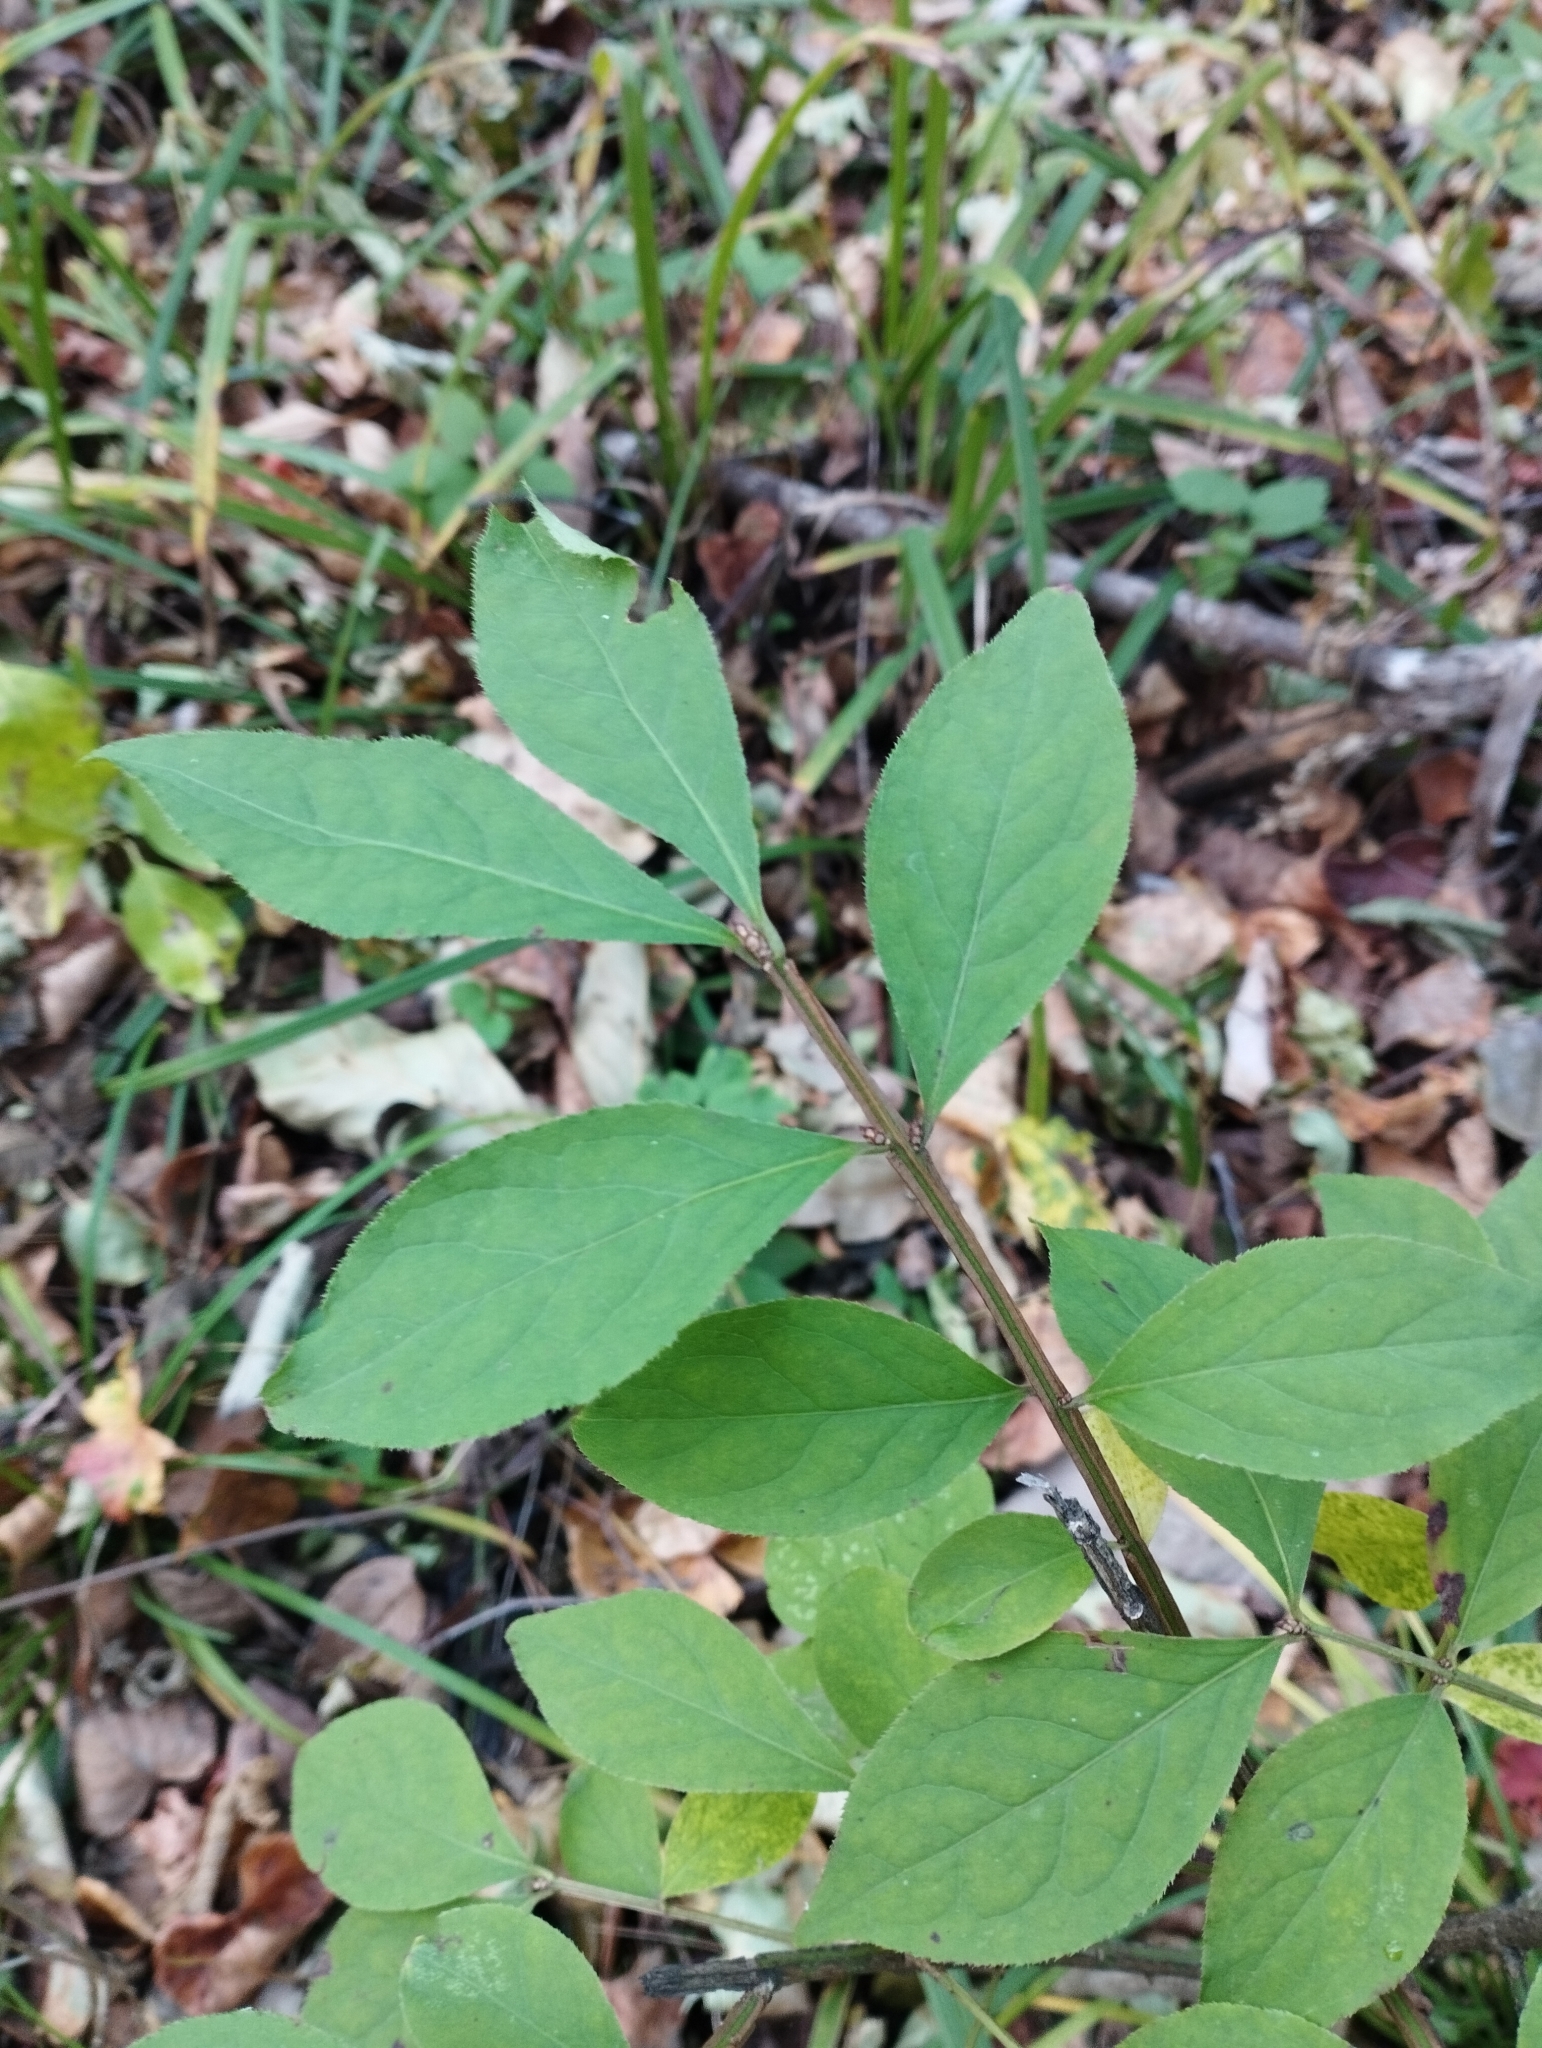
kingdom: Plantae
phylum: Tracheophyta
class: Magnoliopsida
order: Celastrales
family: Celastraceae
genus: Euonymus
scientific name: Euonymus alatus
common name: Winged euonymus
